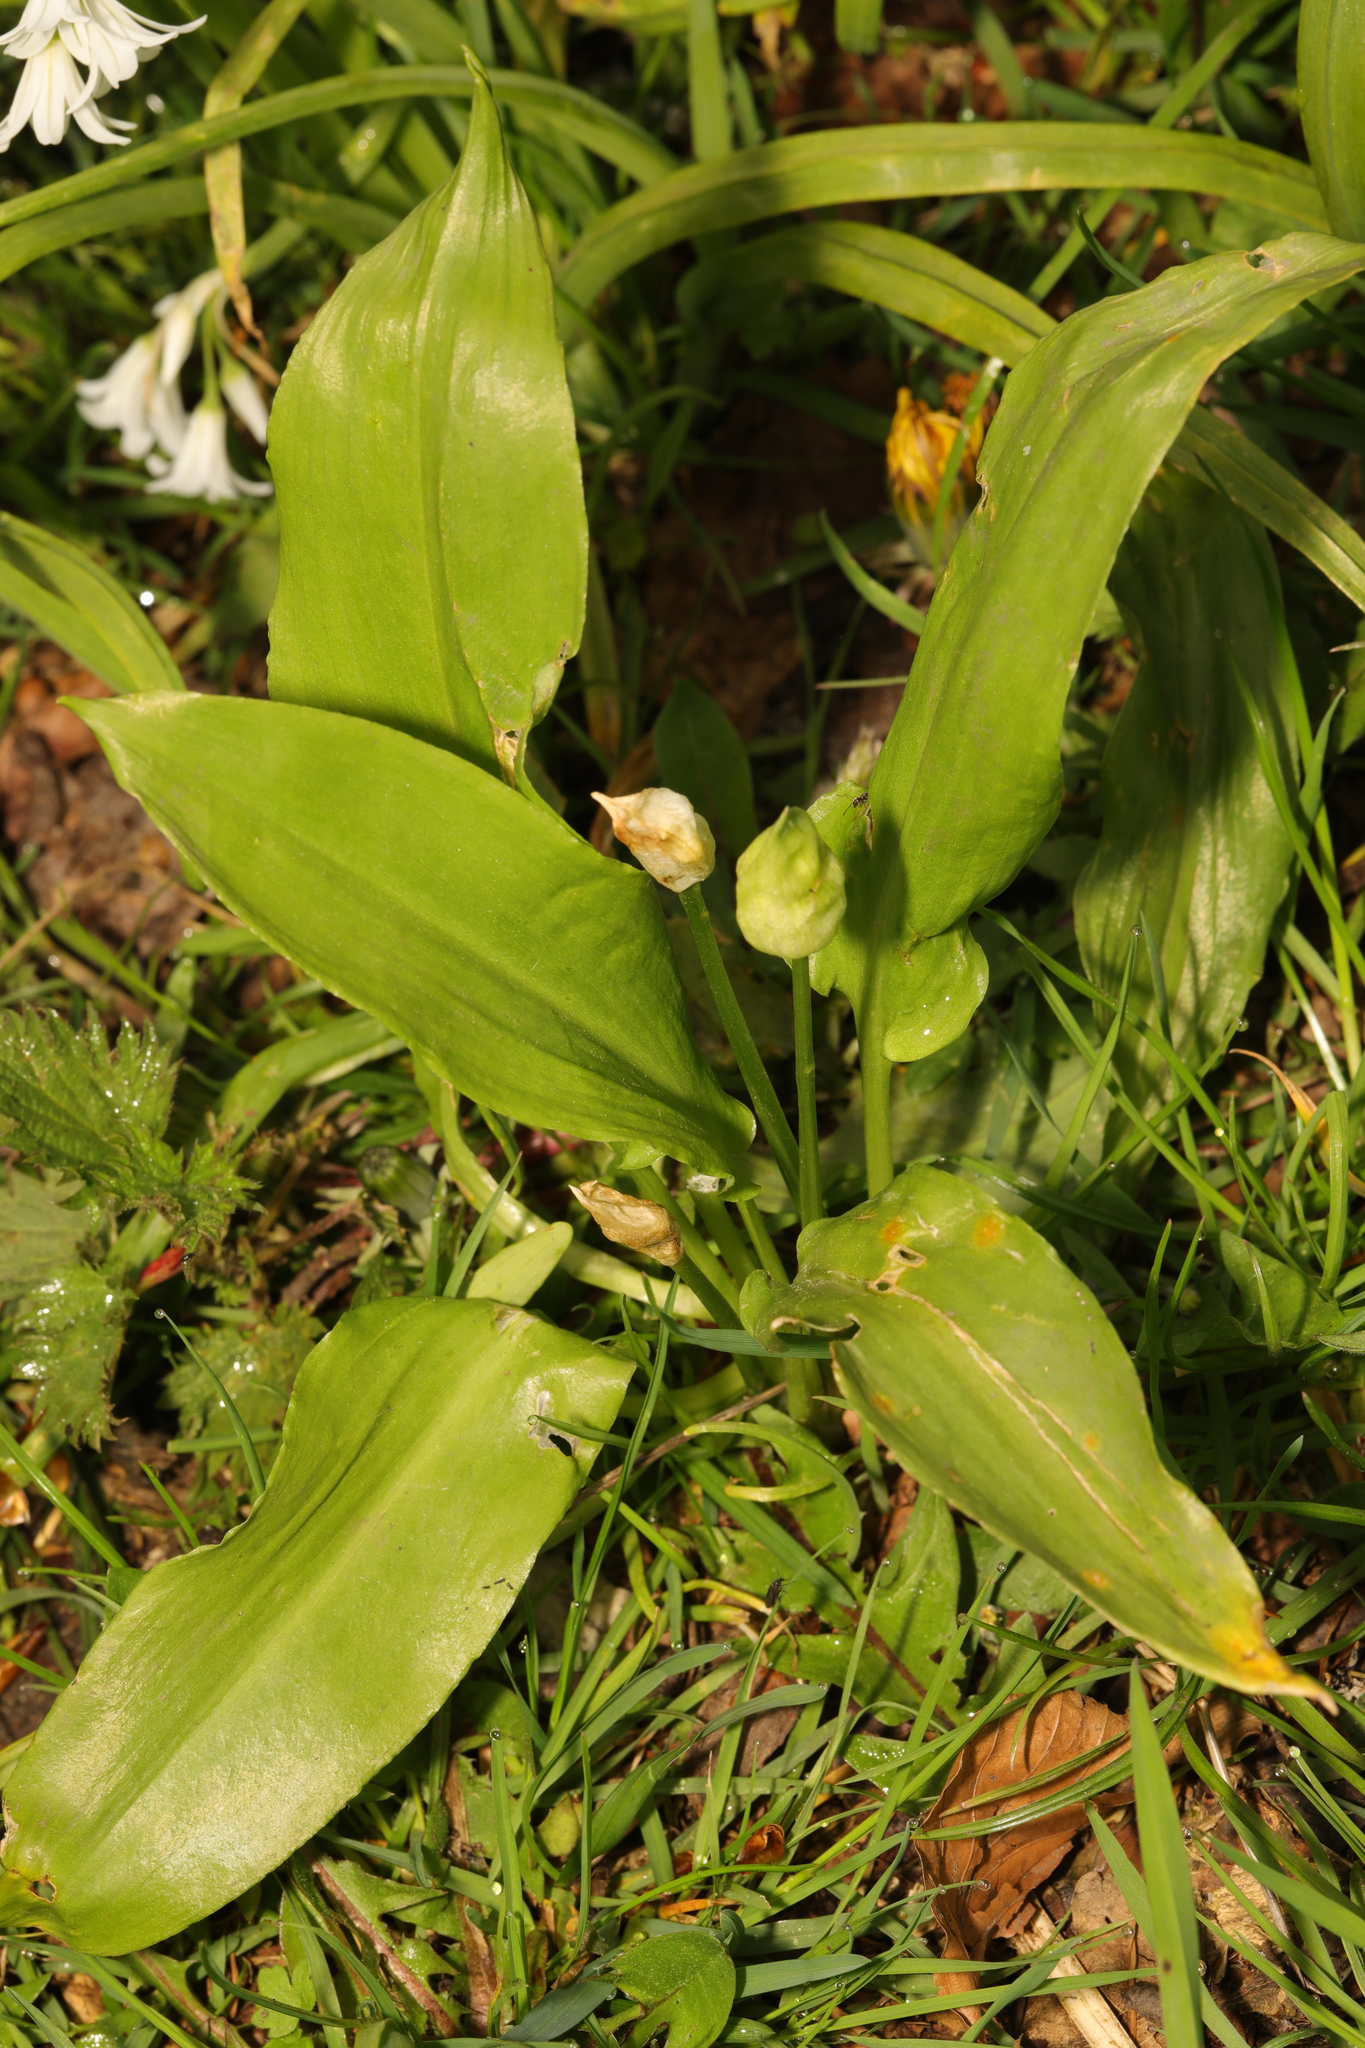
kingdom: Plantae
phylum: Tracheophyta
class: Liliopsida
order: Asparagales
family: Amaryllidaceae
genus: Allium
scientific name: Allium ursinum
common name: Ramsons
